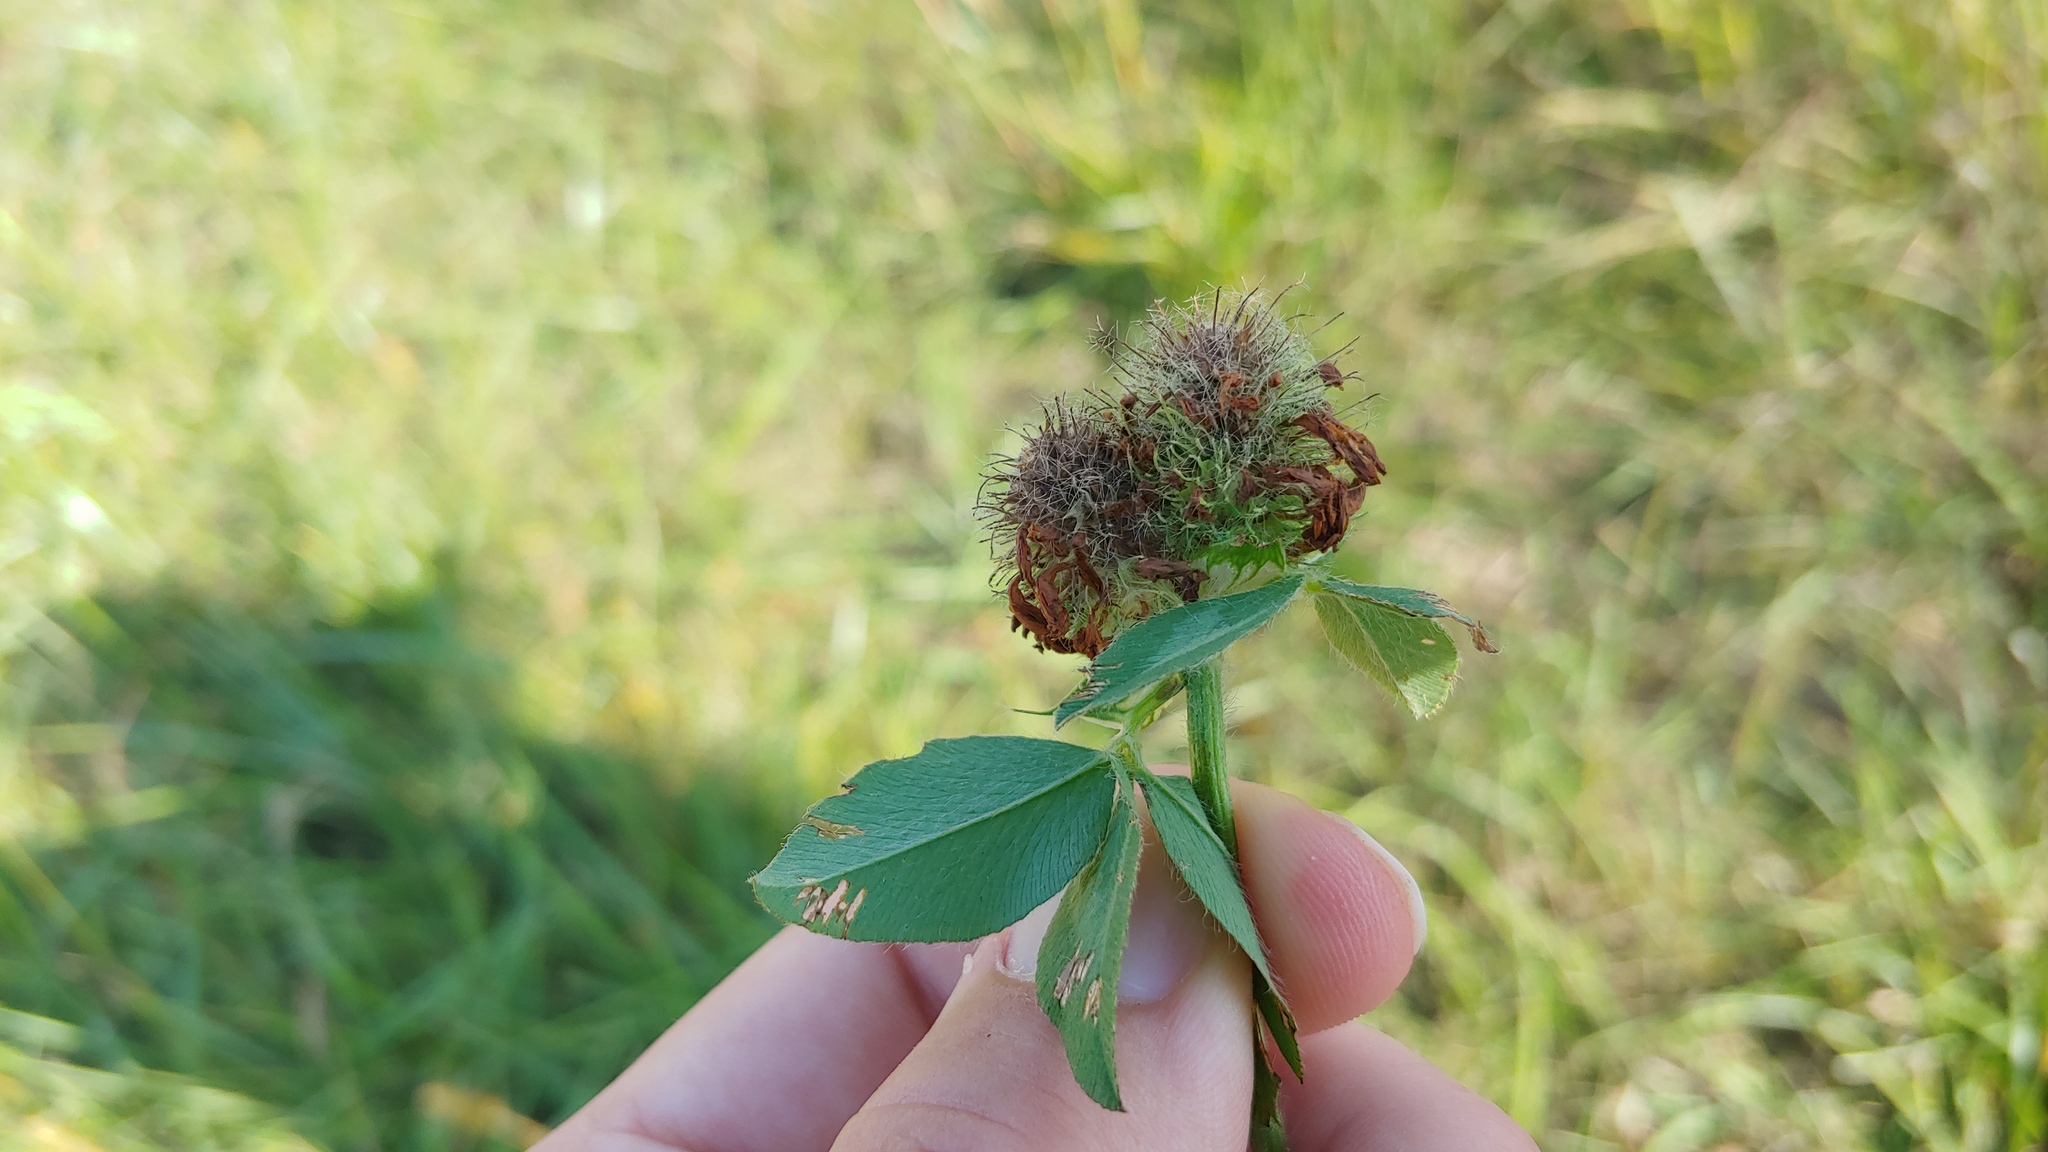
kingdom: Plantae
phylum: Tracheophyta
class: Magnoliopsida
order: Fabales
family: Fabaceae
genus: Trifolium
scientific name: Trifolium pratense
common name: Red clover
